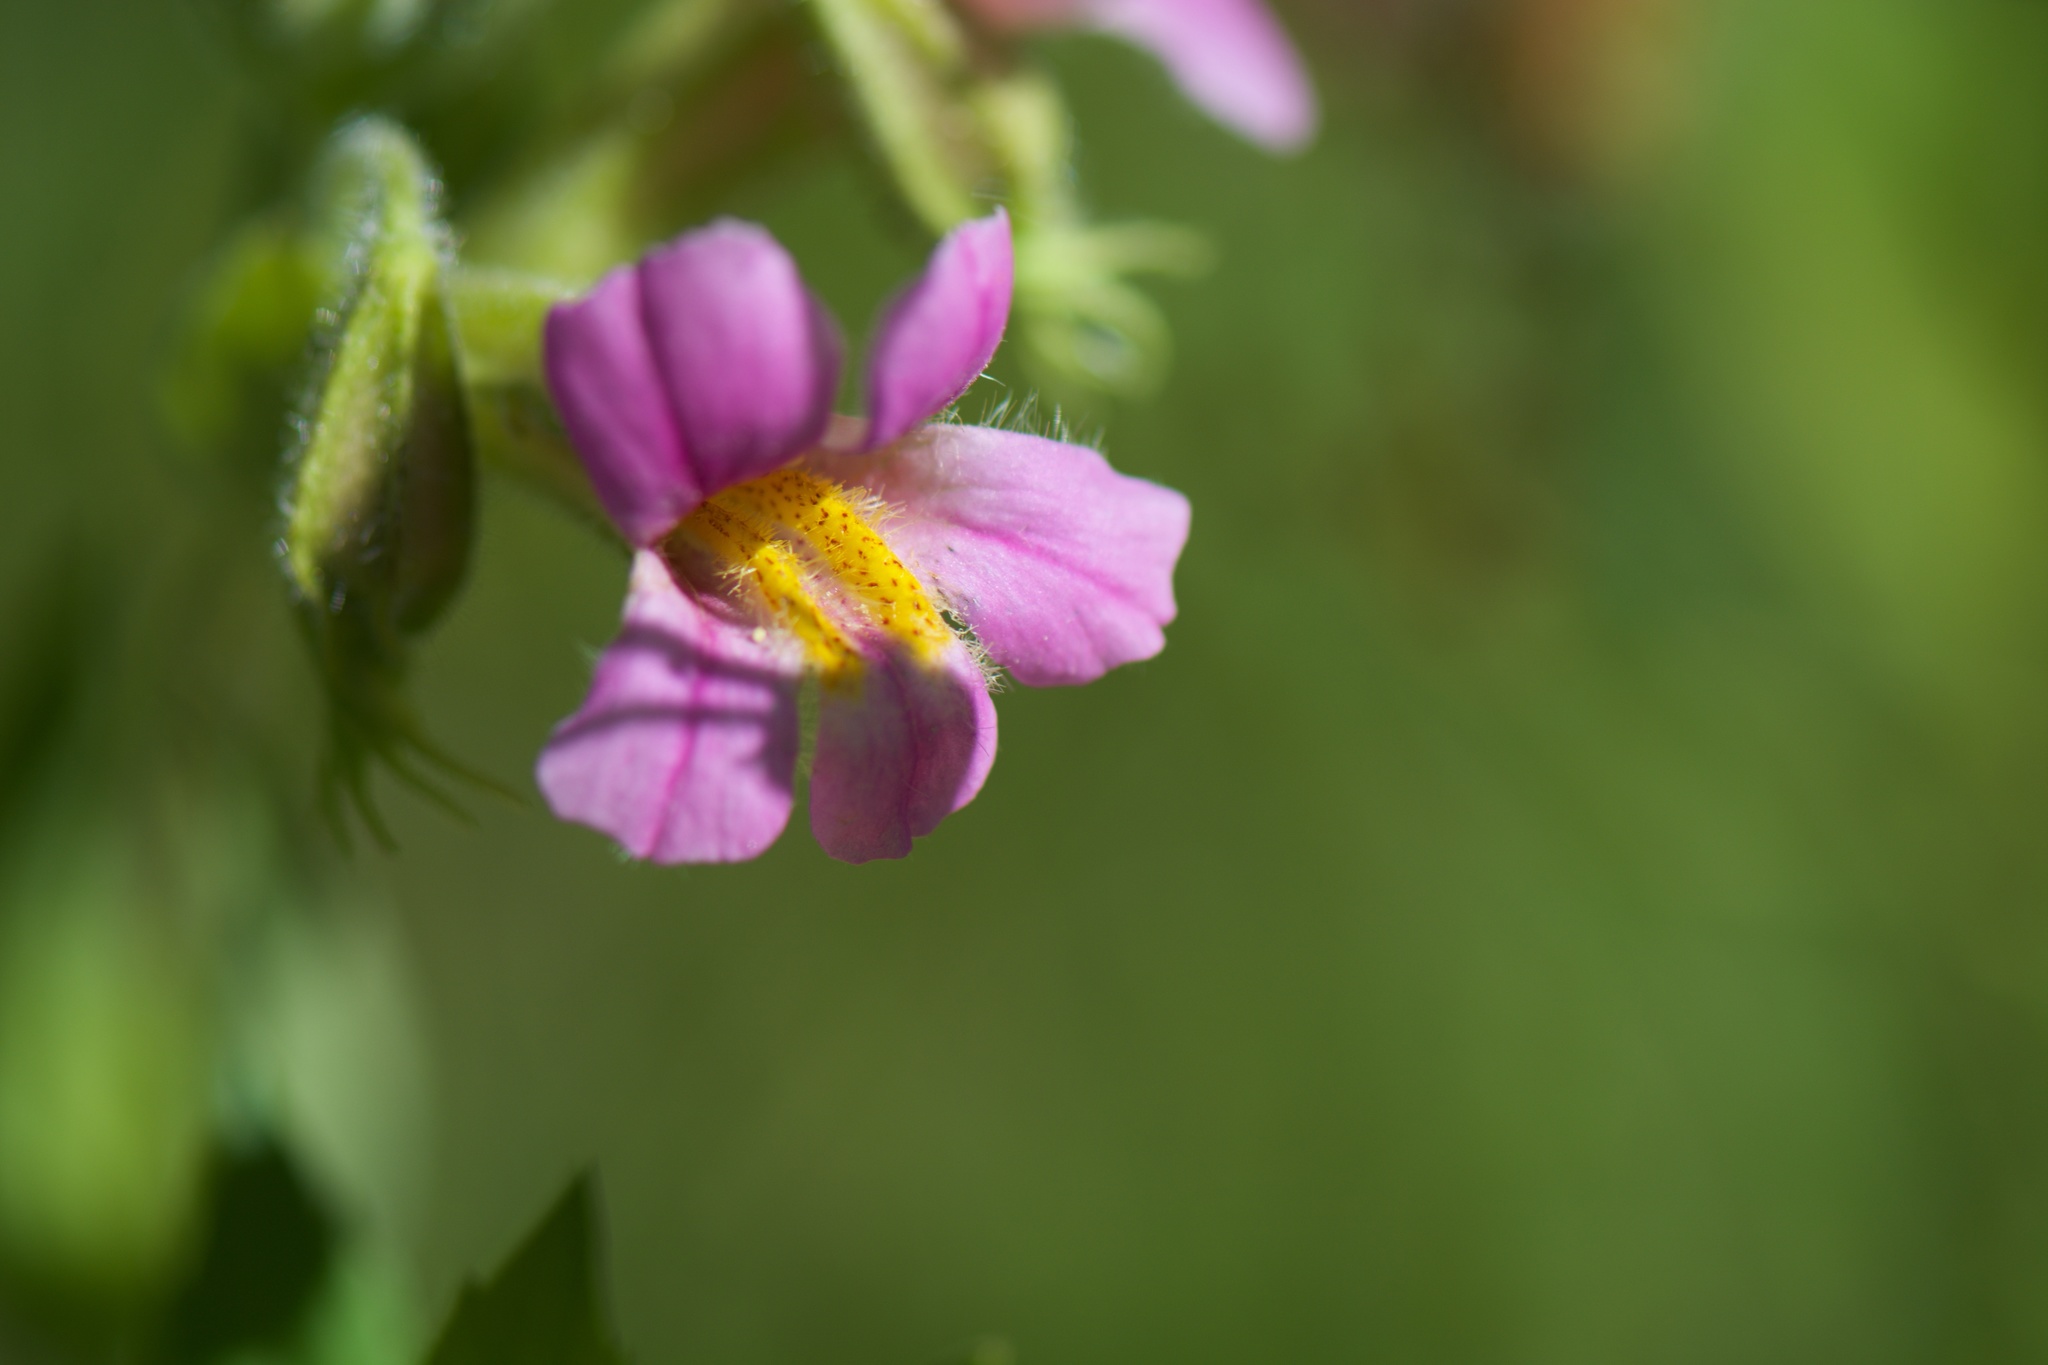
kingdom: Plantae
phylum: Tracheophyta
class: Magnoliopsida
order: Lamiales
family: Phrymaceae
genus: Erythranthe
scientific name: Erythranthe erubescens
